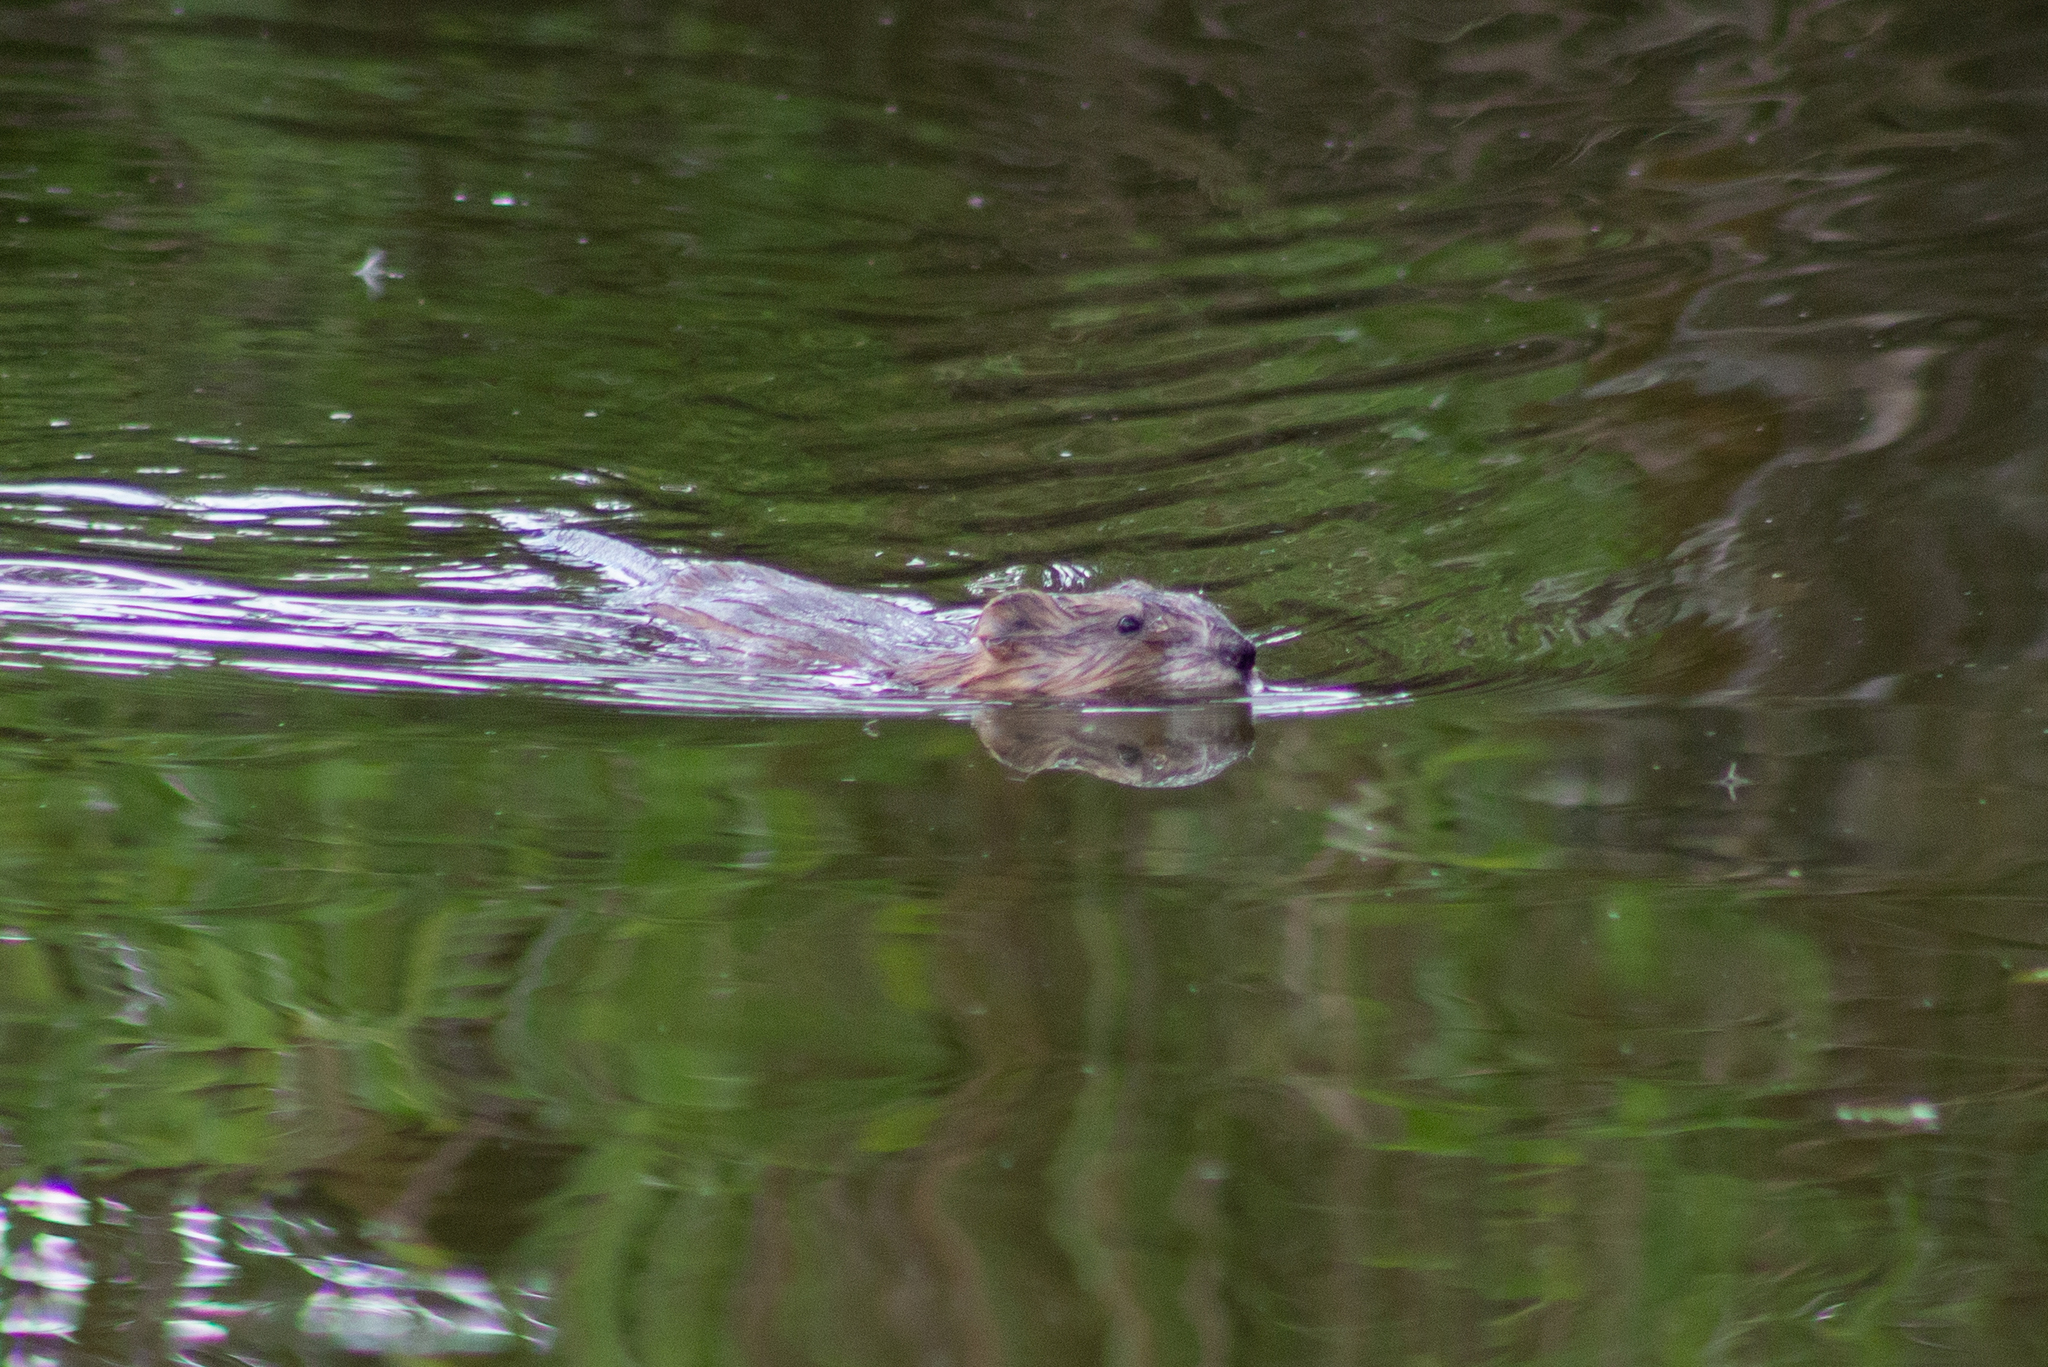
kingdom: Animalia
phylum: Chordata
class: Mammalia
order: Rodentia
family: Cricetidae
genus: Ondatra
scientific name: Ondatra zibethicus
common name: Muskrat
